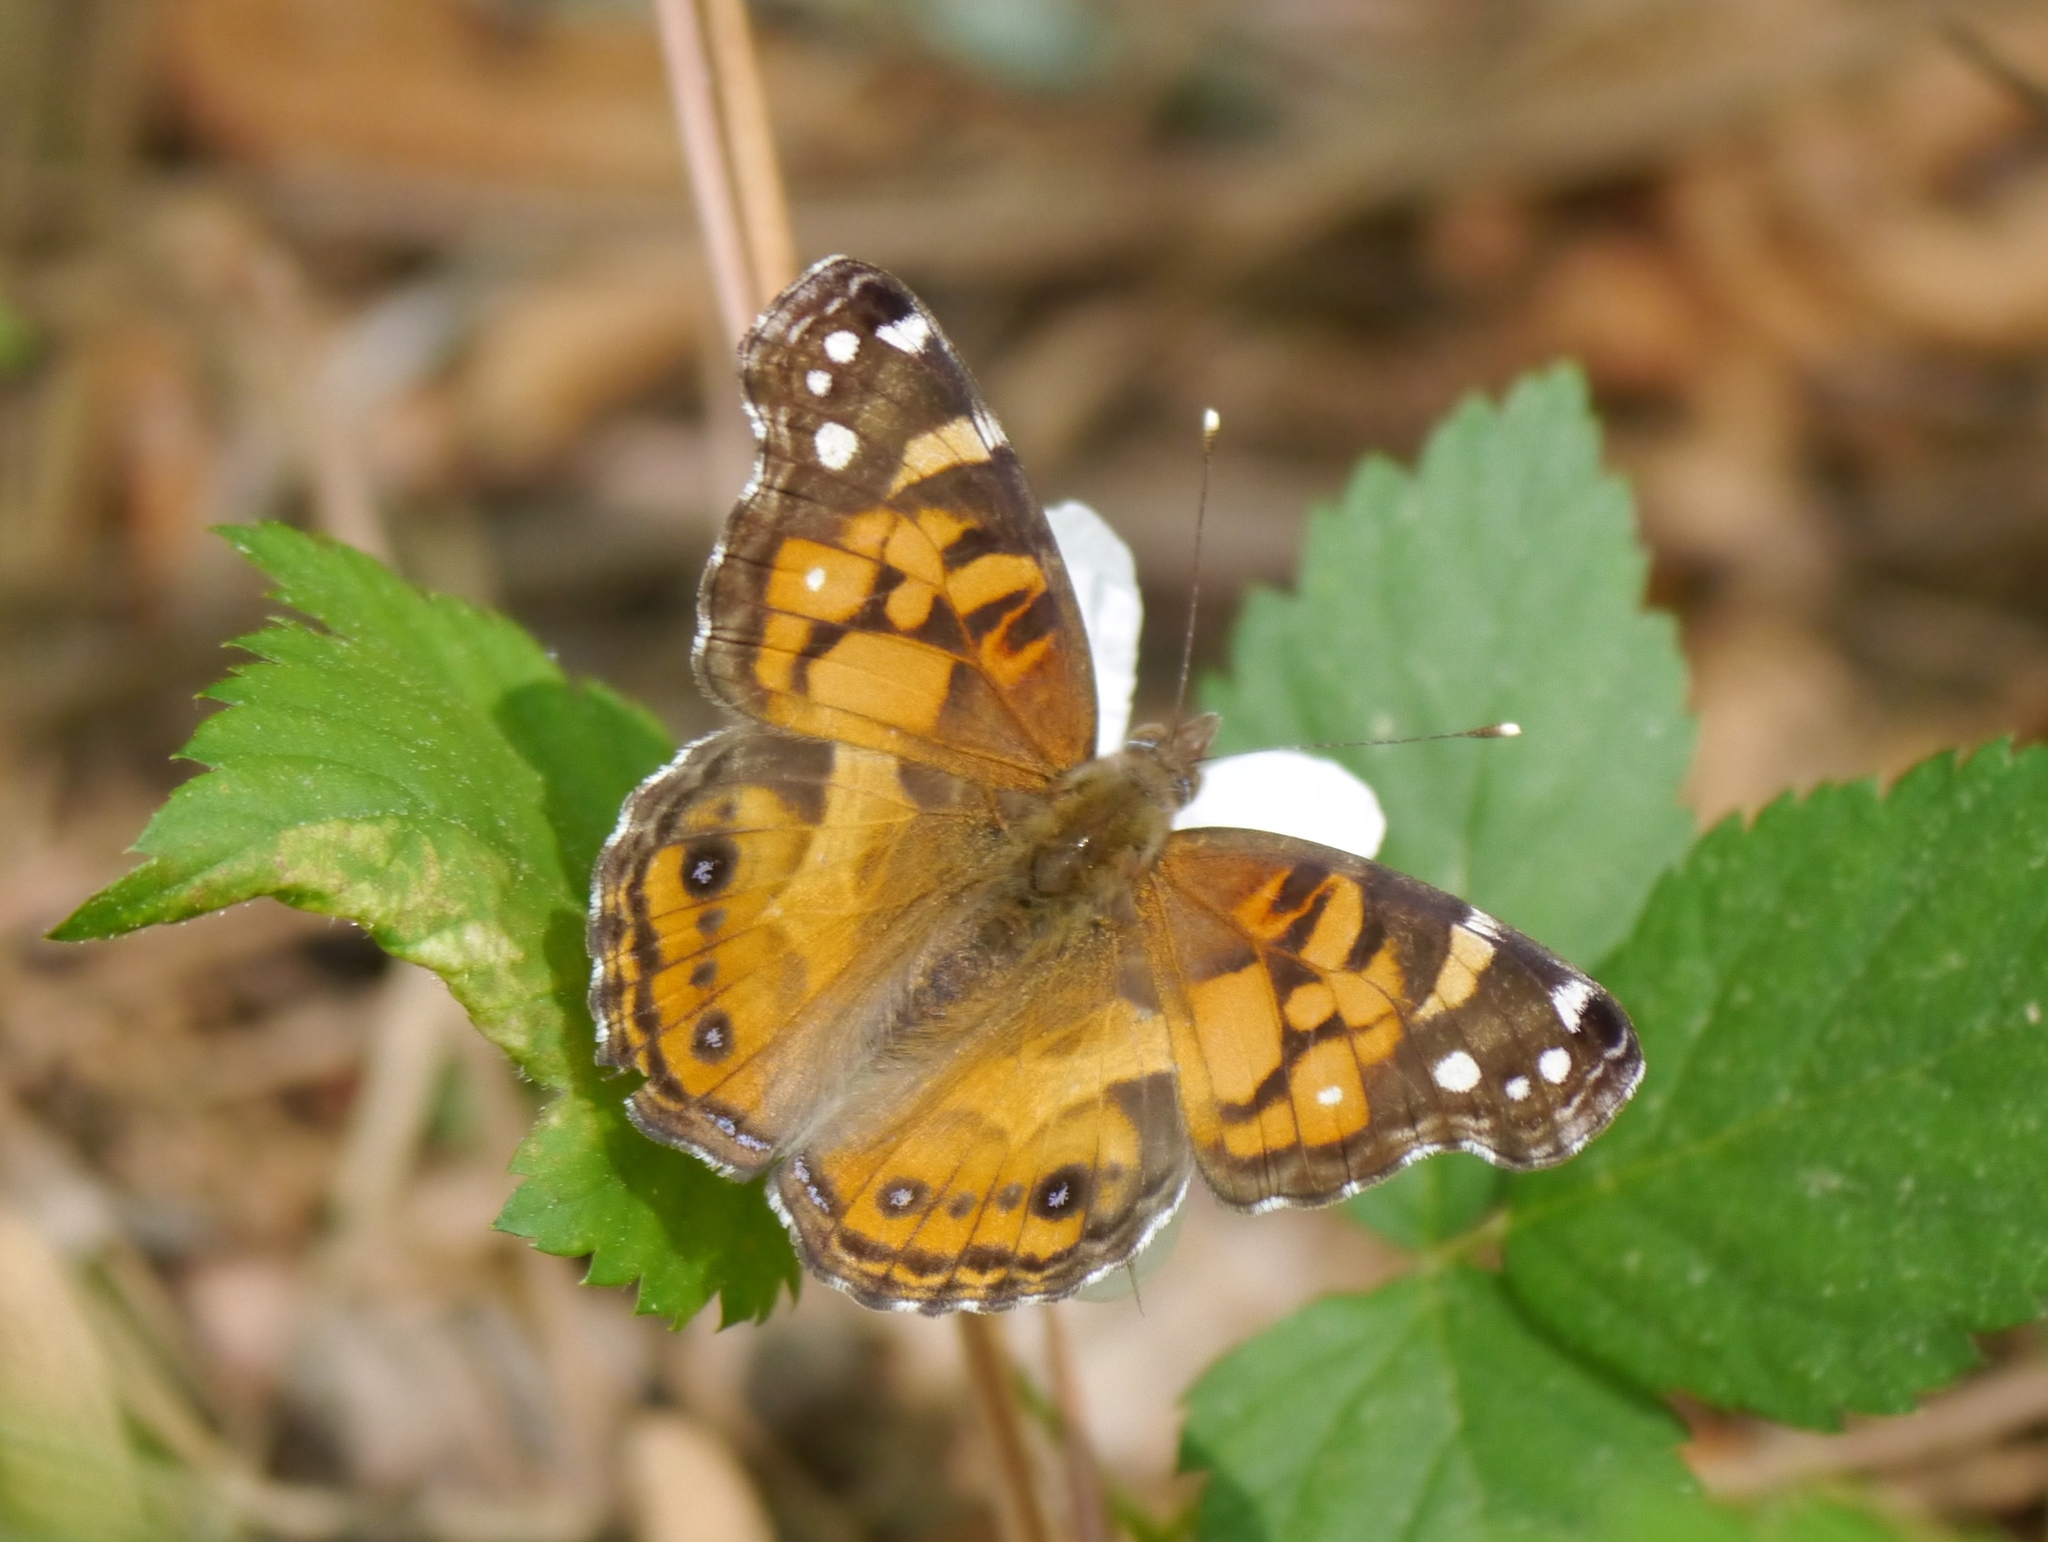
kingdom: Animalia
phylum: Arthropoda
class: Insecta
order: Lepidoptera
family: Nymphalidae
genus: Vanessa
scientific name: Vanessa virginiensis
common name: American lady
